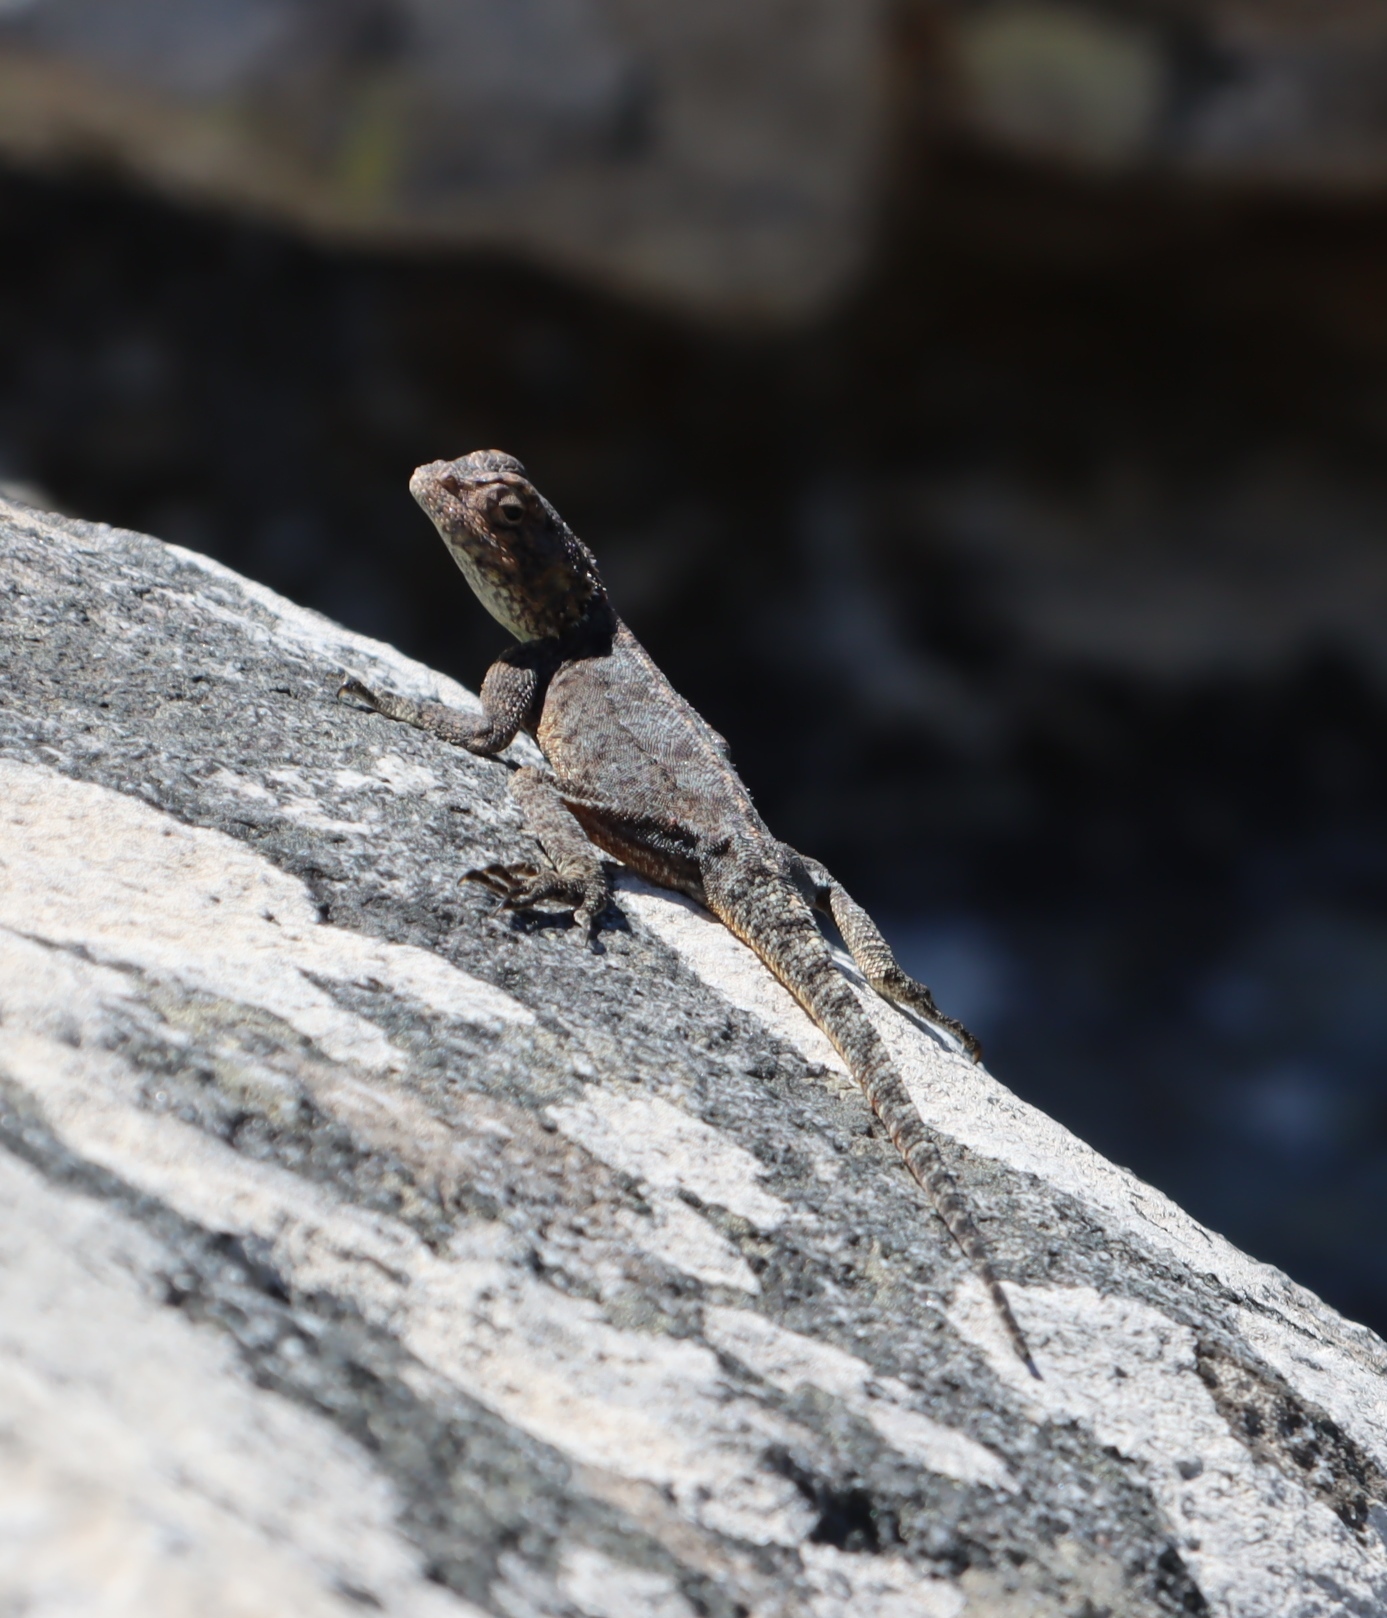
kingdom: Animalia
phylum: Chordata
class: Squamata
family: Agamidae
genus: Agama
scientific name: Agama atra
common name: Southern african rock agama
